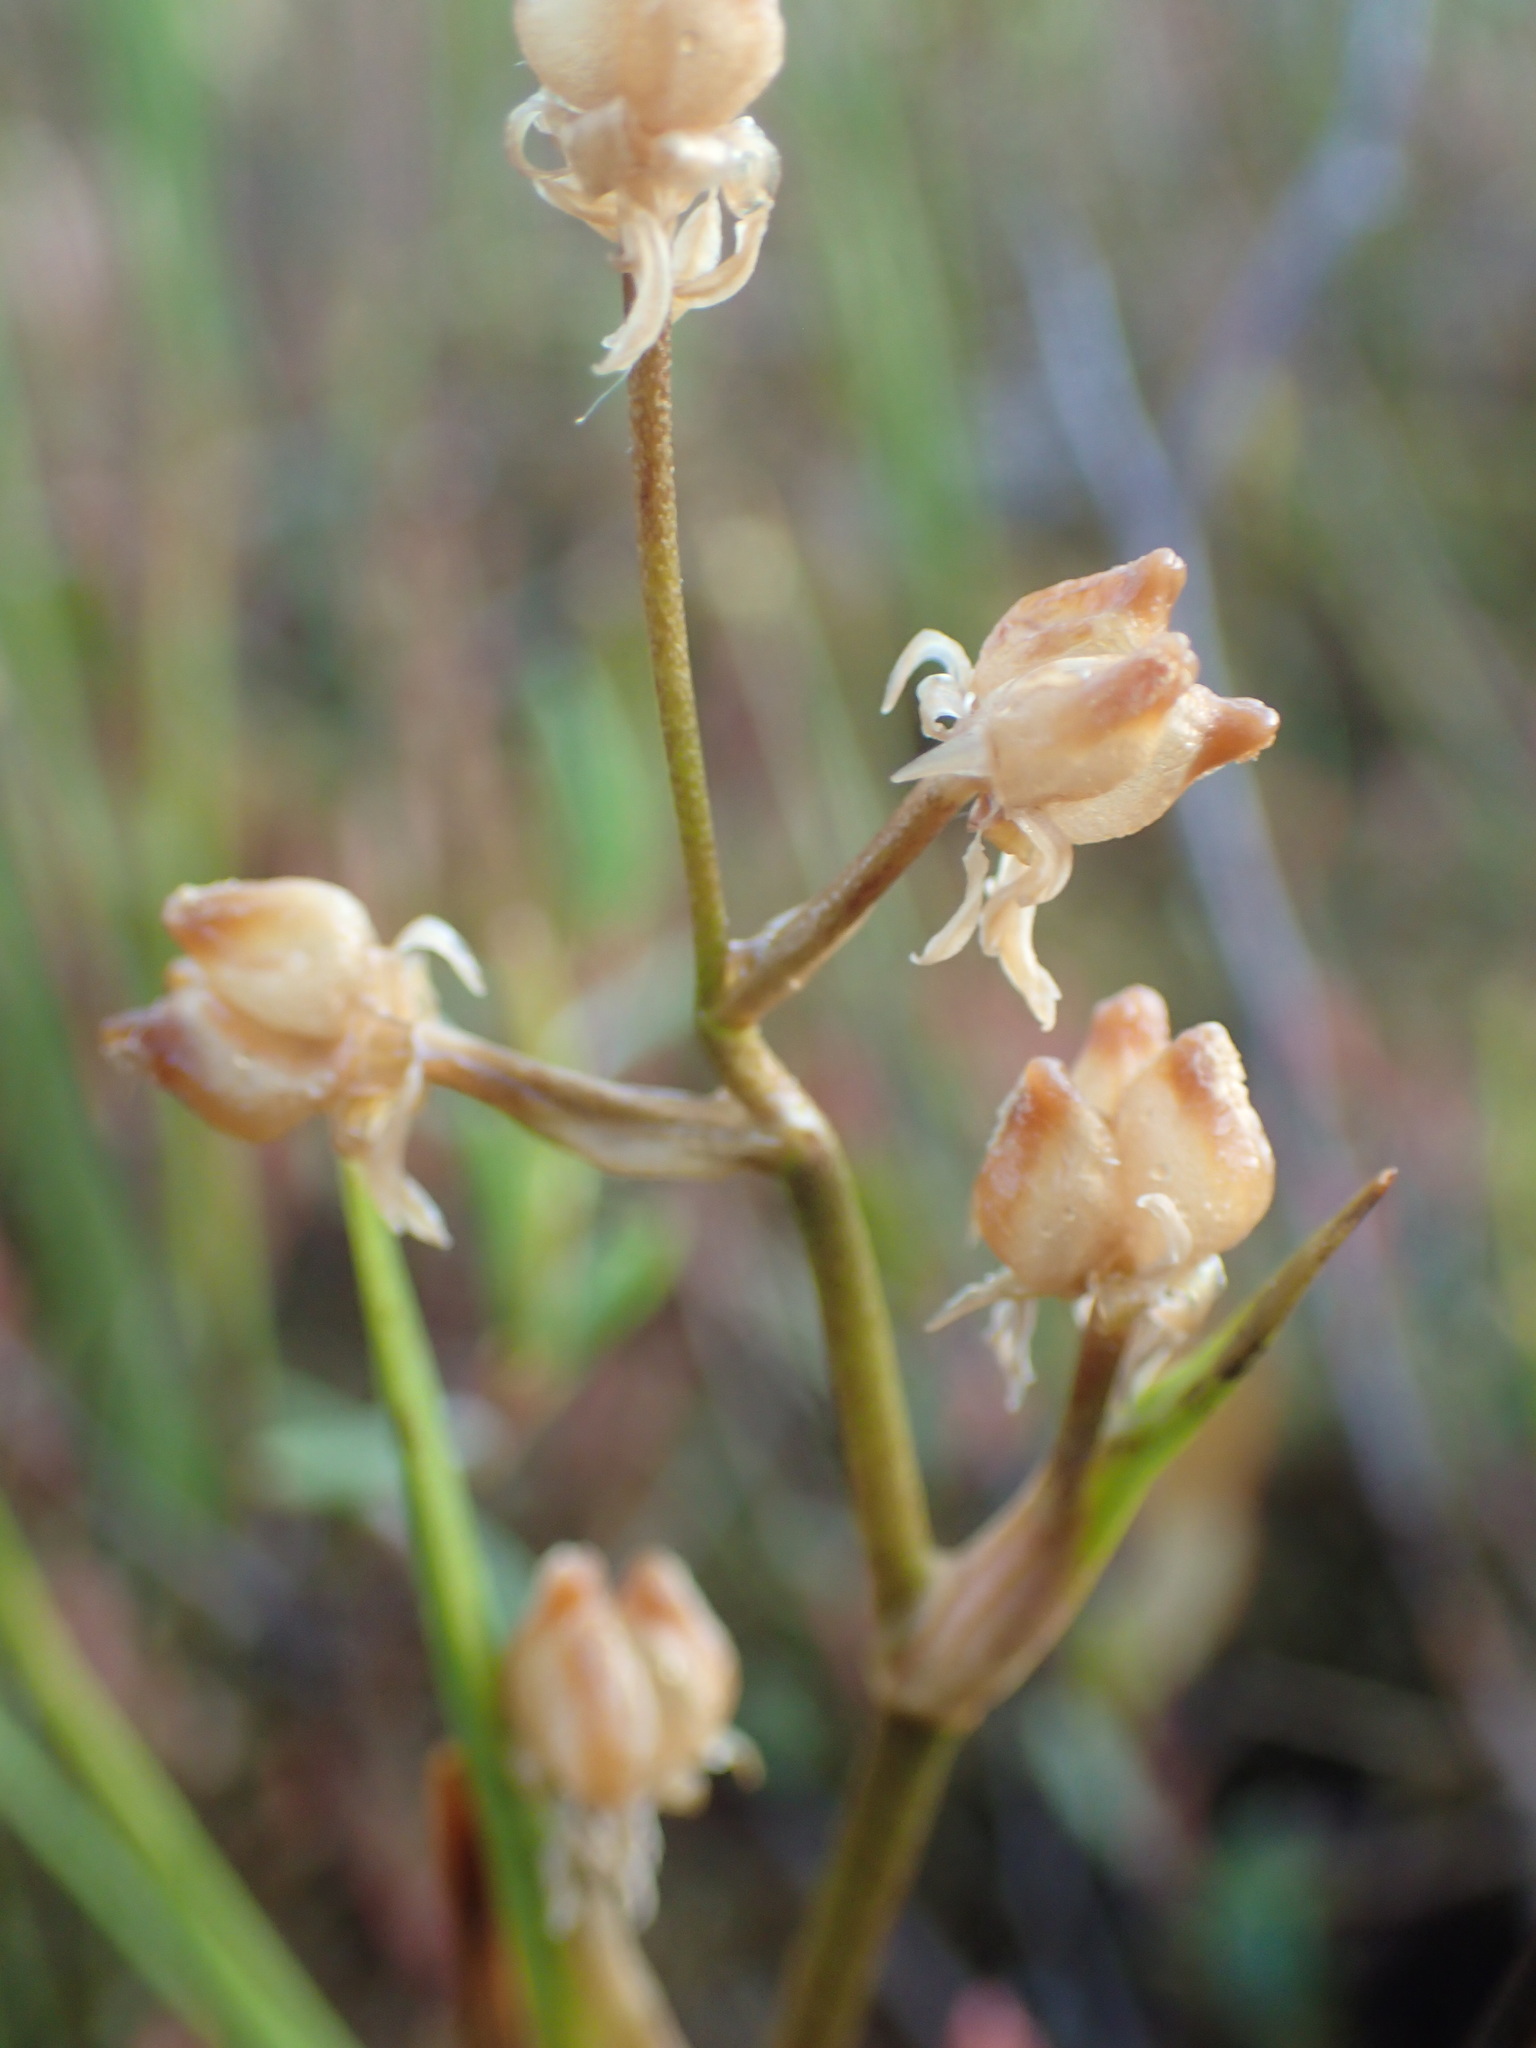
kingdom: Plantae
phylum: Tracheophyta
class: Liliopsida
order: Alismatales
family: Scheuchzeriaceae
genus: Scheuchzeria
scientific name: Scheuchzeria palustris
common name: Rannoch-rush
